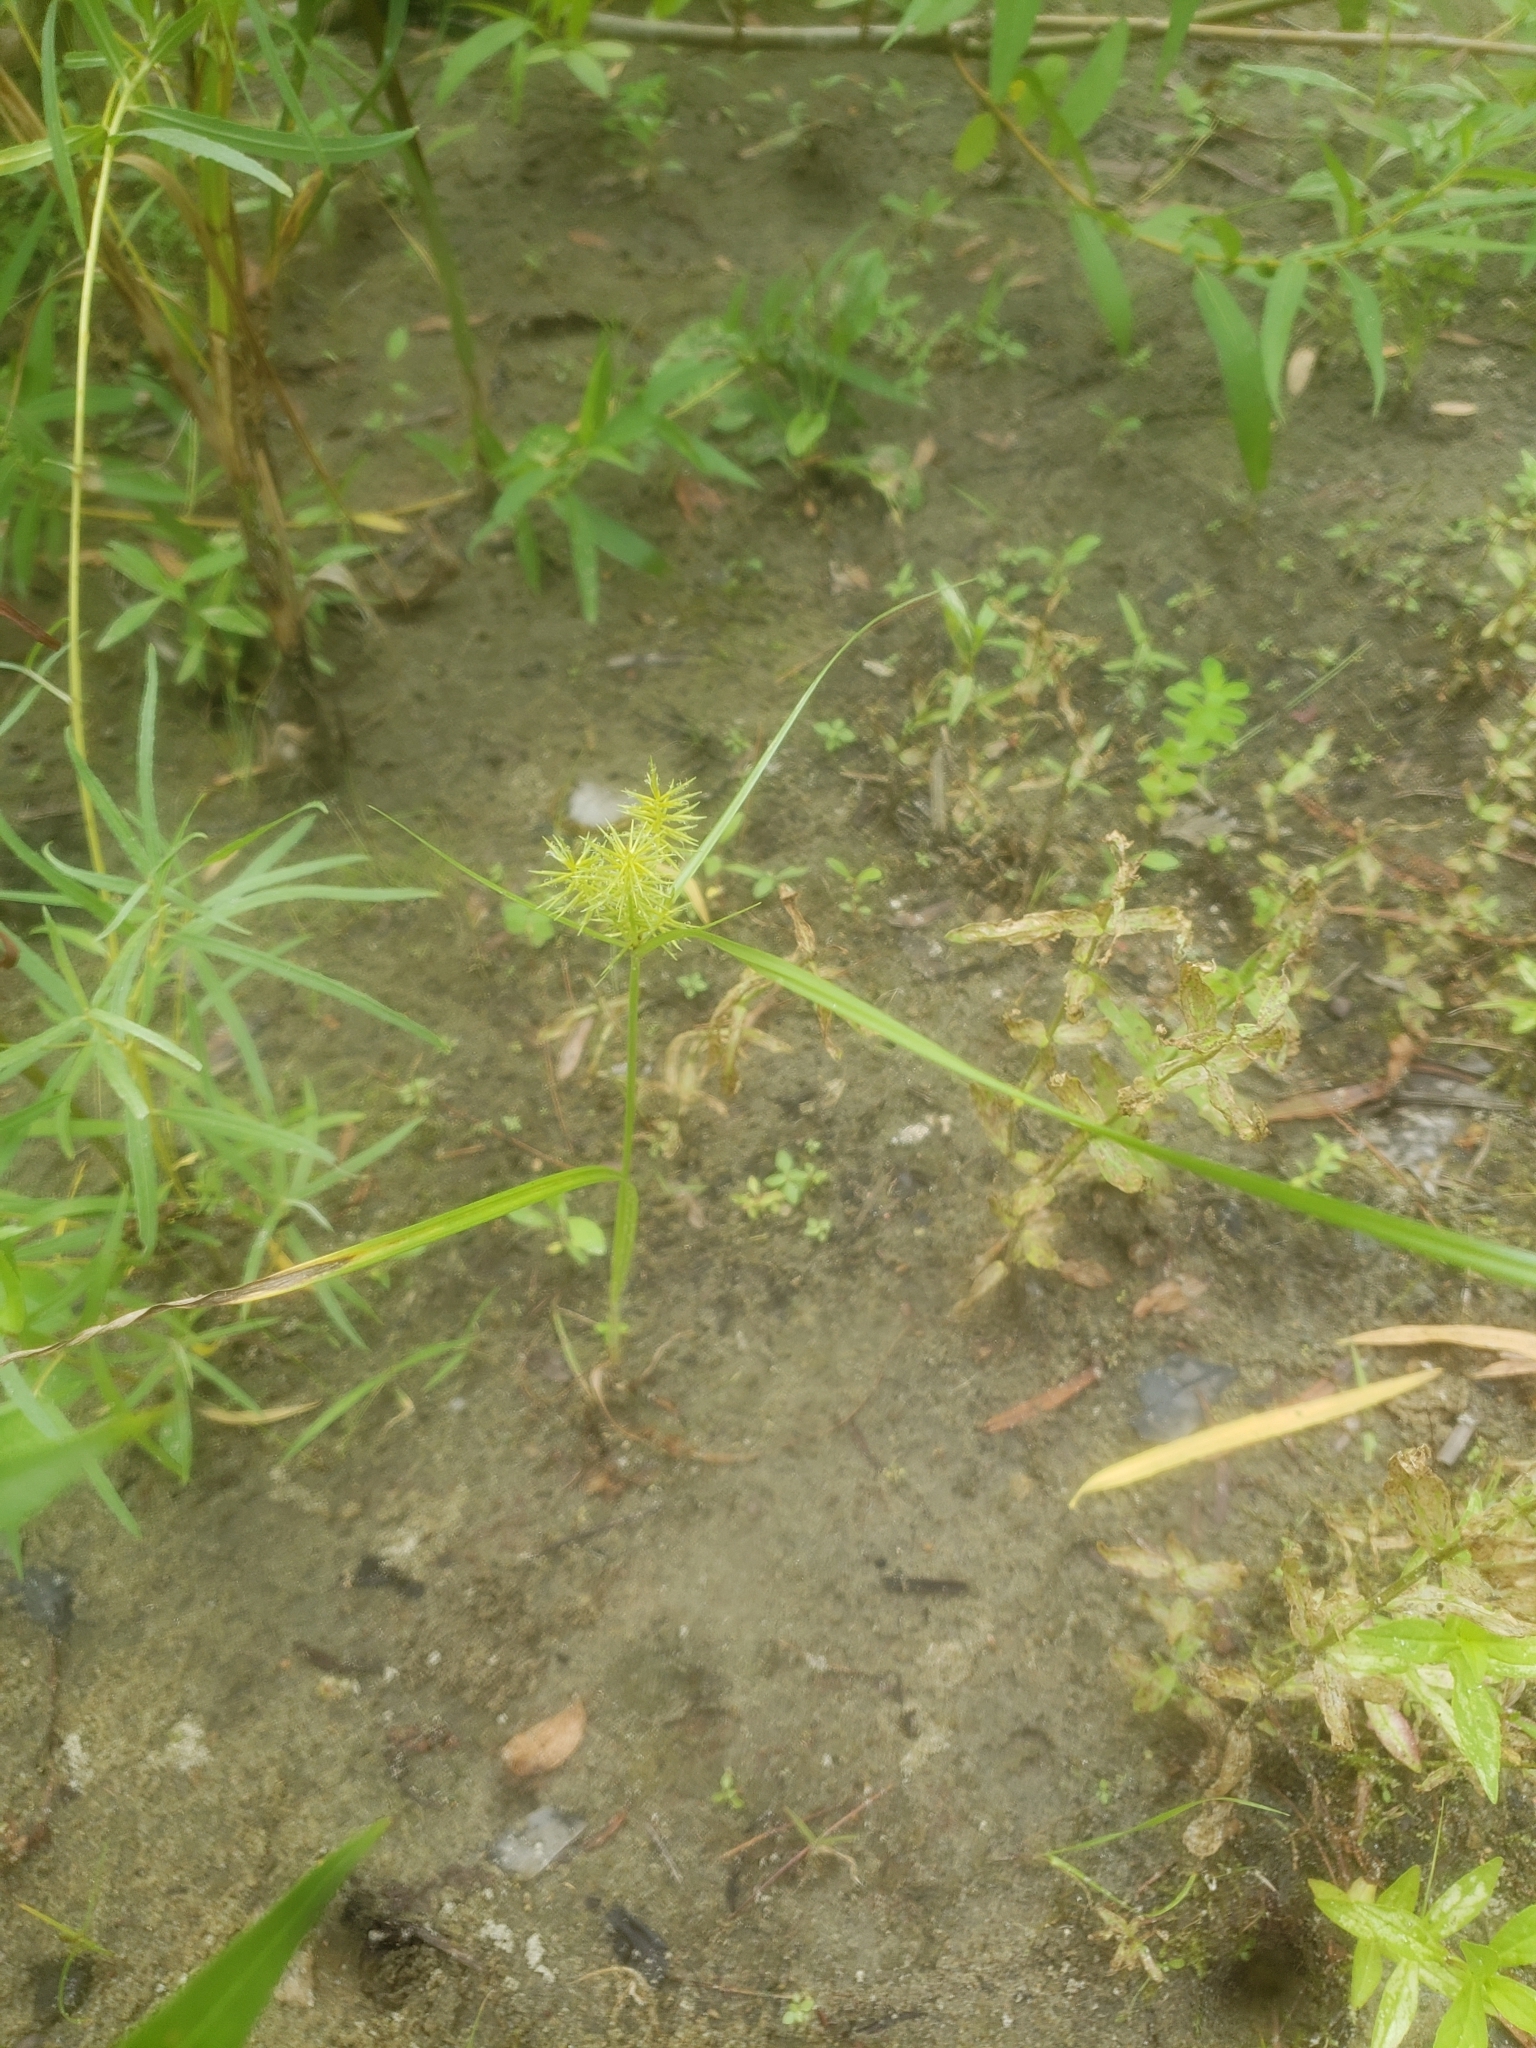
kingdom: Plantae
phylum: Tracheophyta
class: Liliopsida
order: Poales
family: Cyperaceae
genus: Cyperus
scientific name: Cyperus strigosus
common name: False nutsedge
